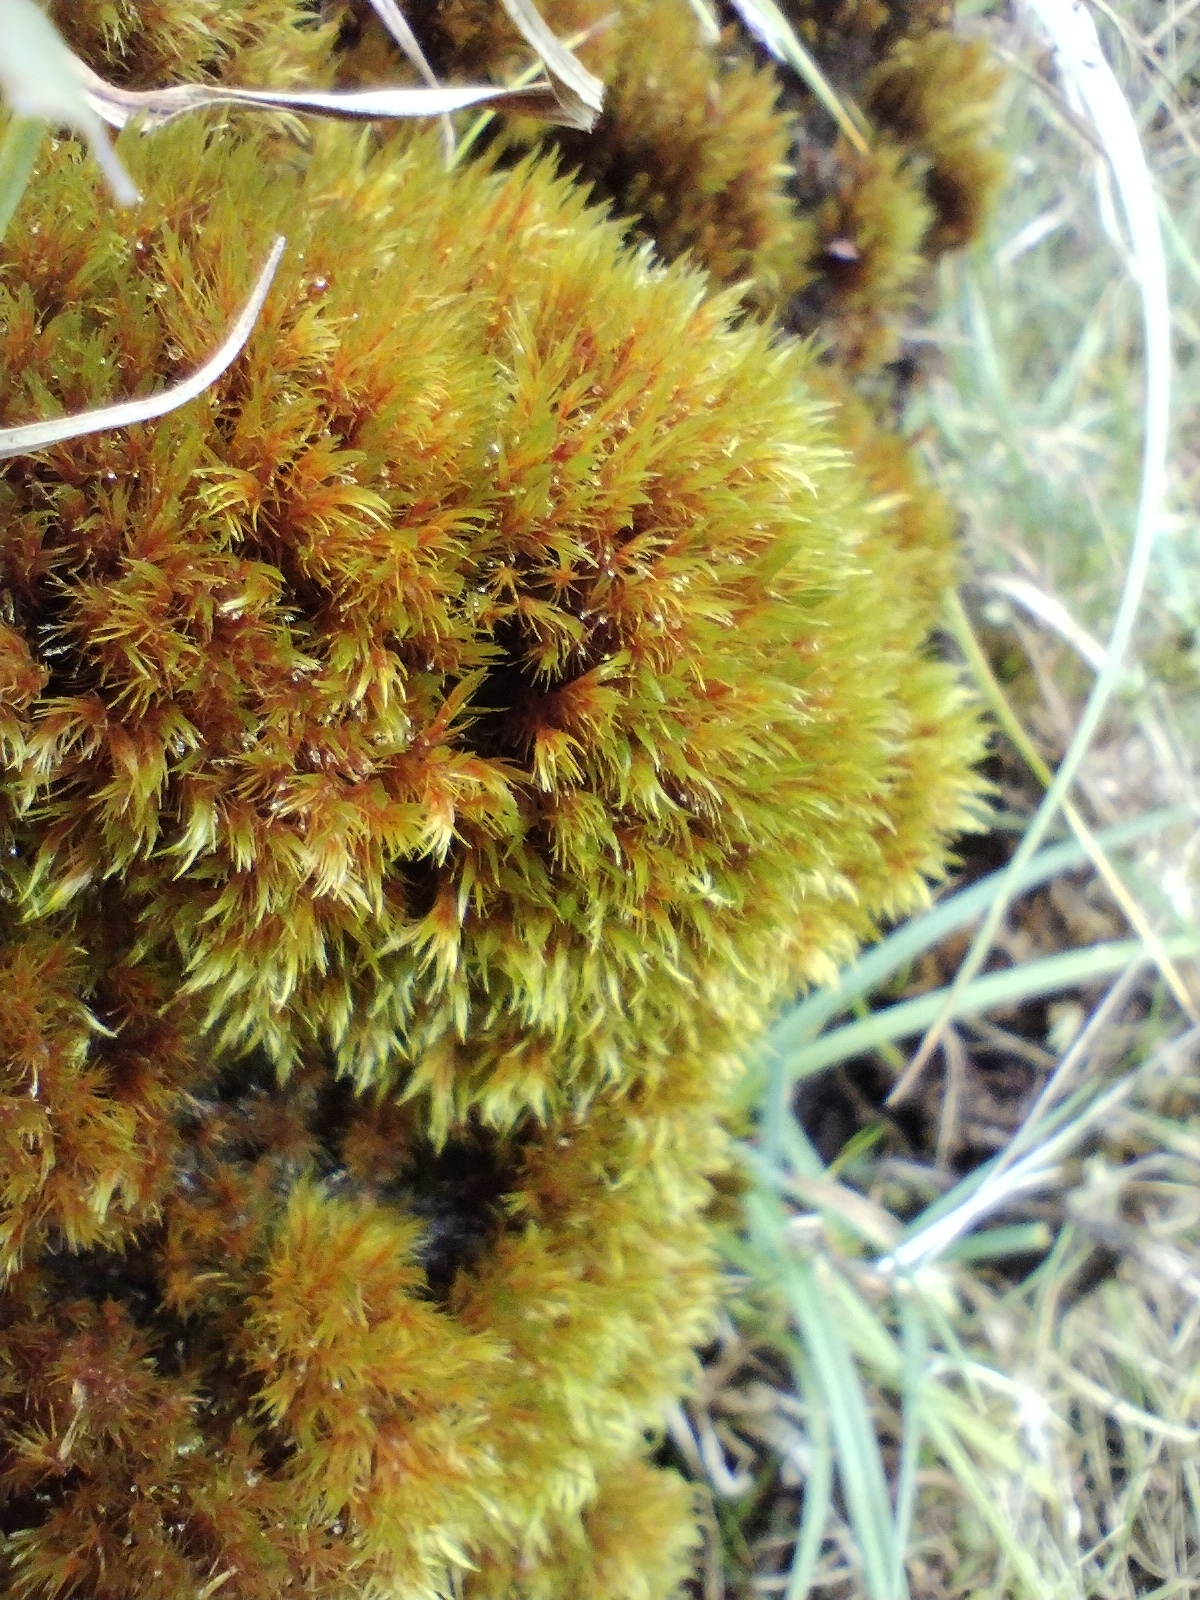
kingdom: Plantae
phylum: Bryophyta
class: Bryopsida
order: Grimmiales
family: Seligeriaceae
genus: Blindia
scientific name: Blindia acuta
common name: Sharp-leaved blind's moss
